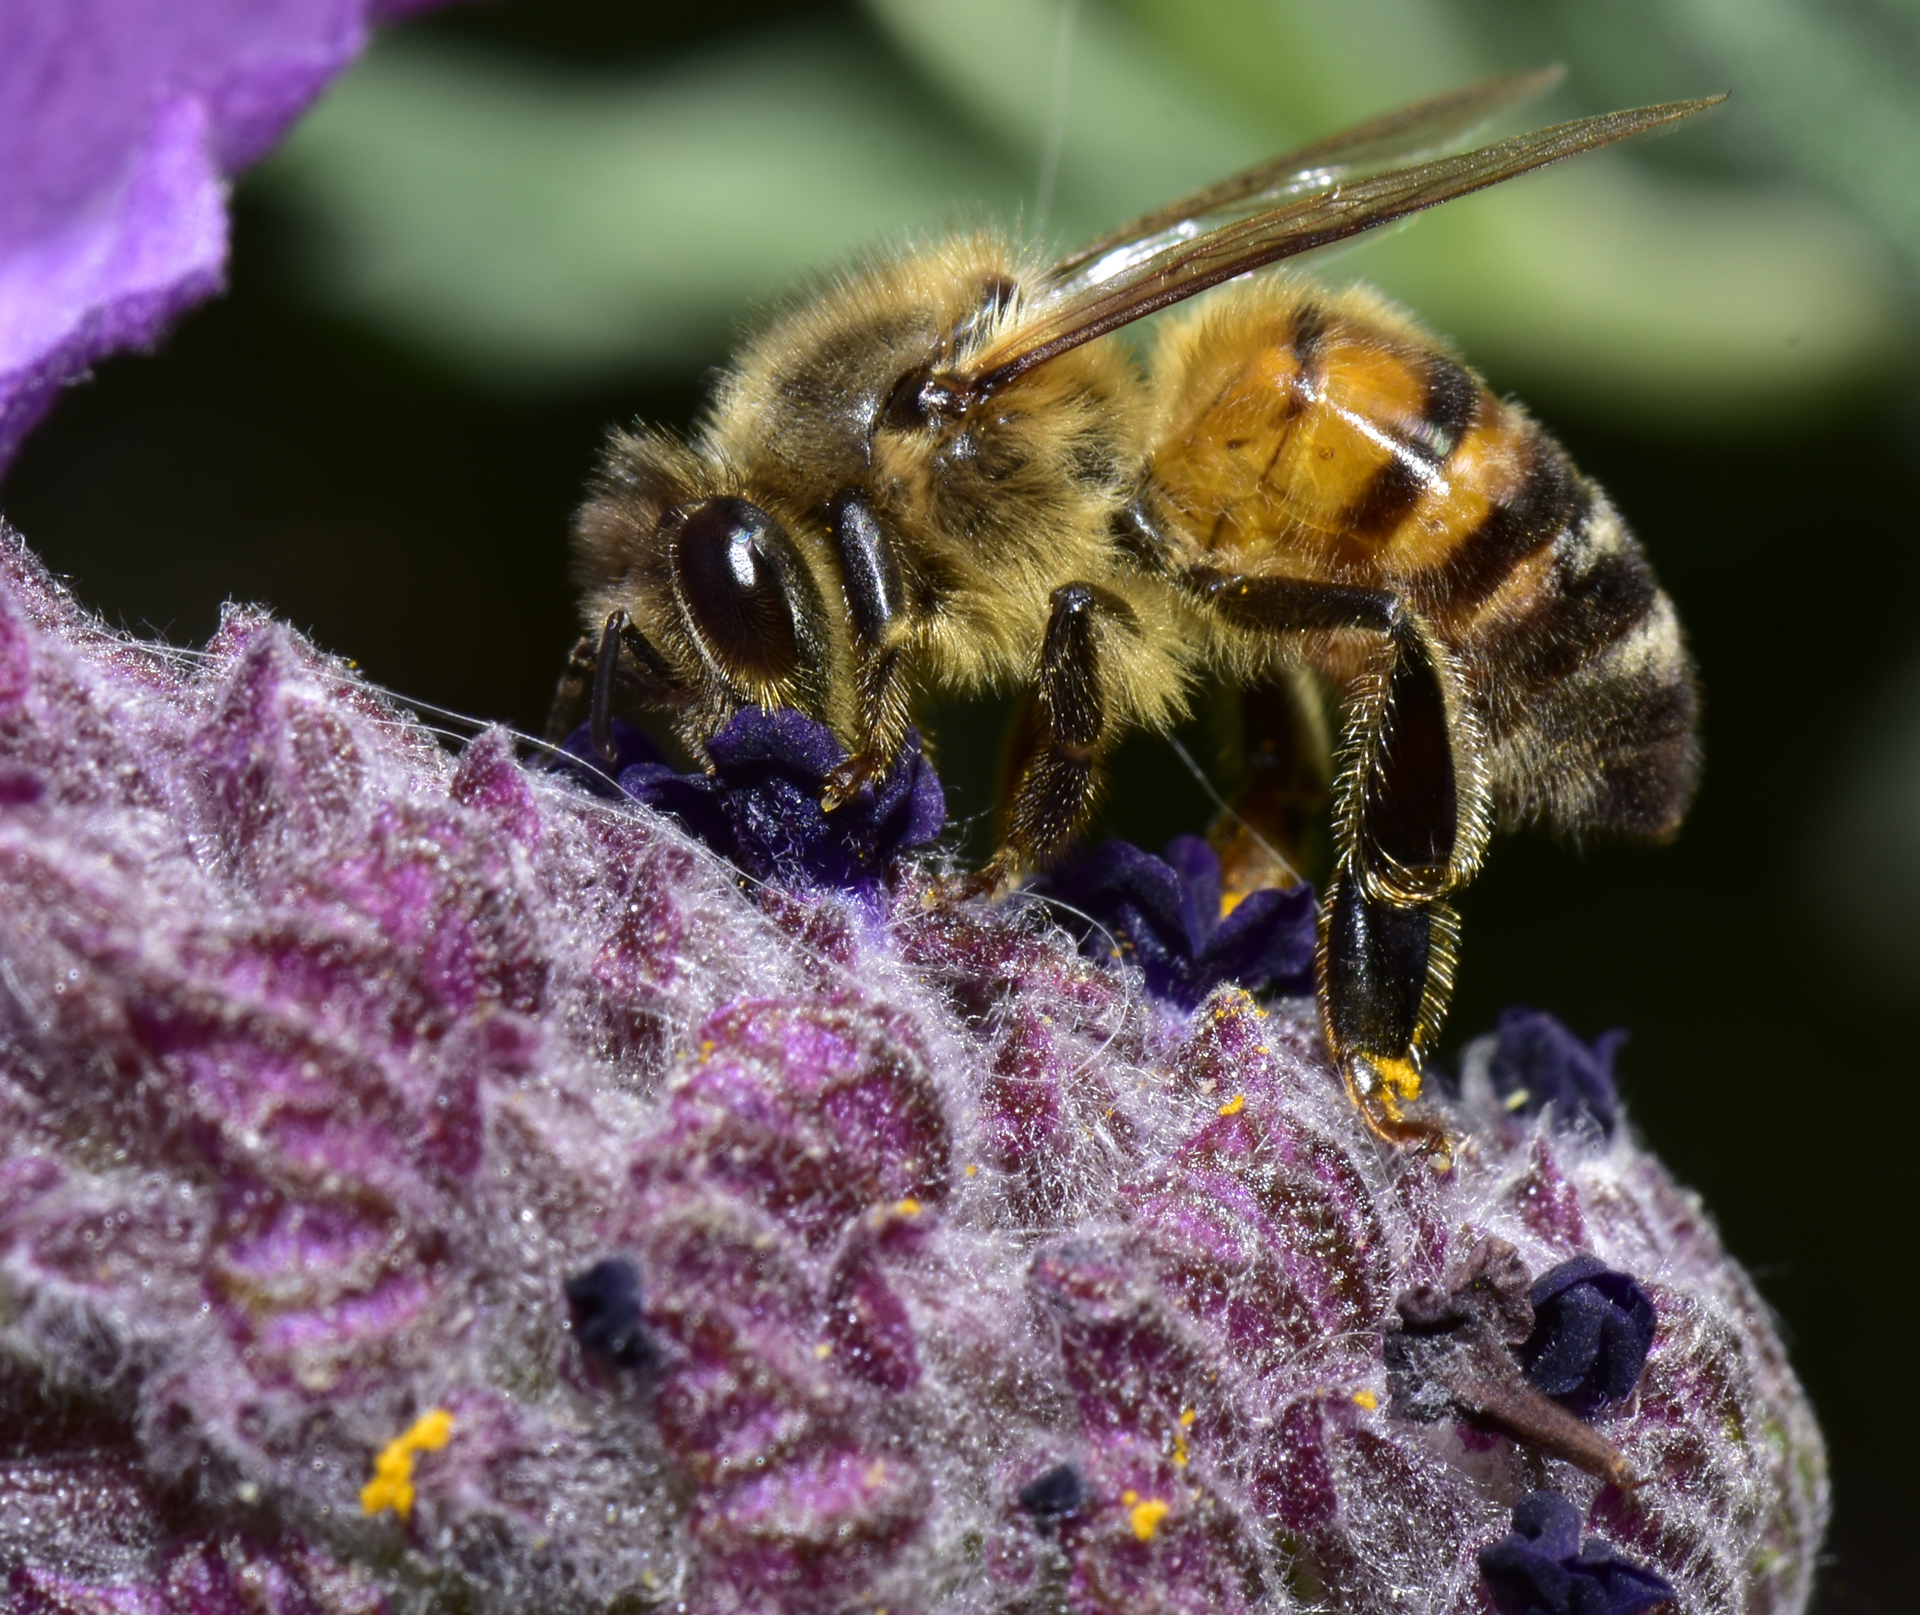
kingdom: Animalia
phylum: Arthropoda
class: Insecta
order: Hymenoptera
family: Apidae
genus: Apis
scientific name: Apis mellifera
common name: Honey bee
